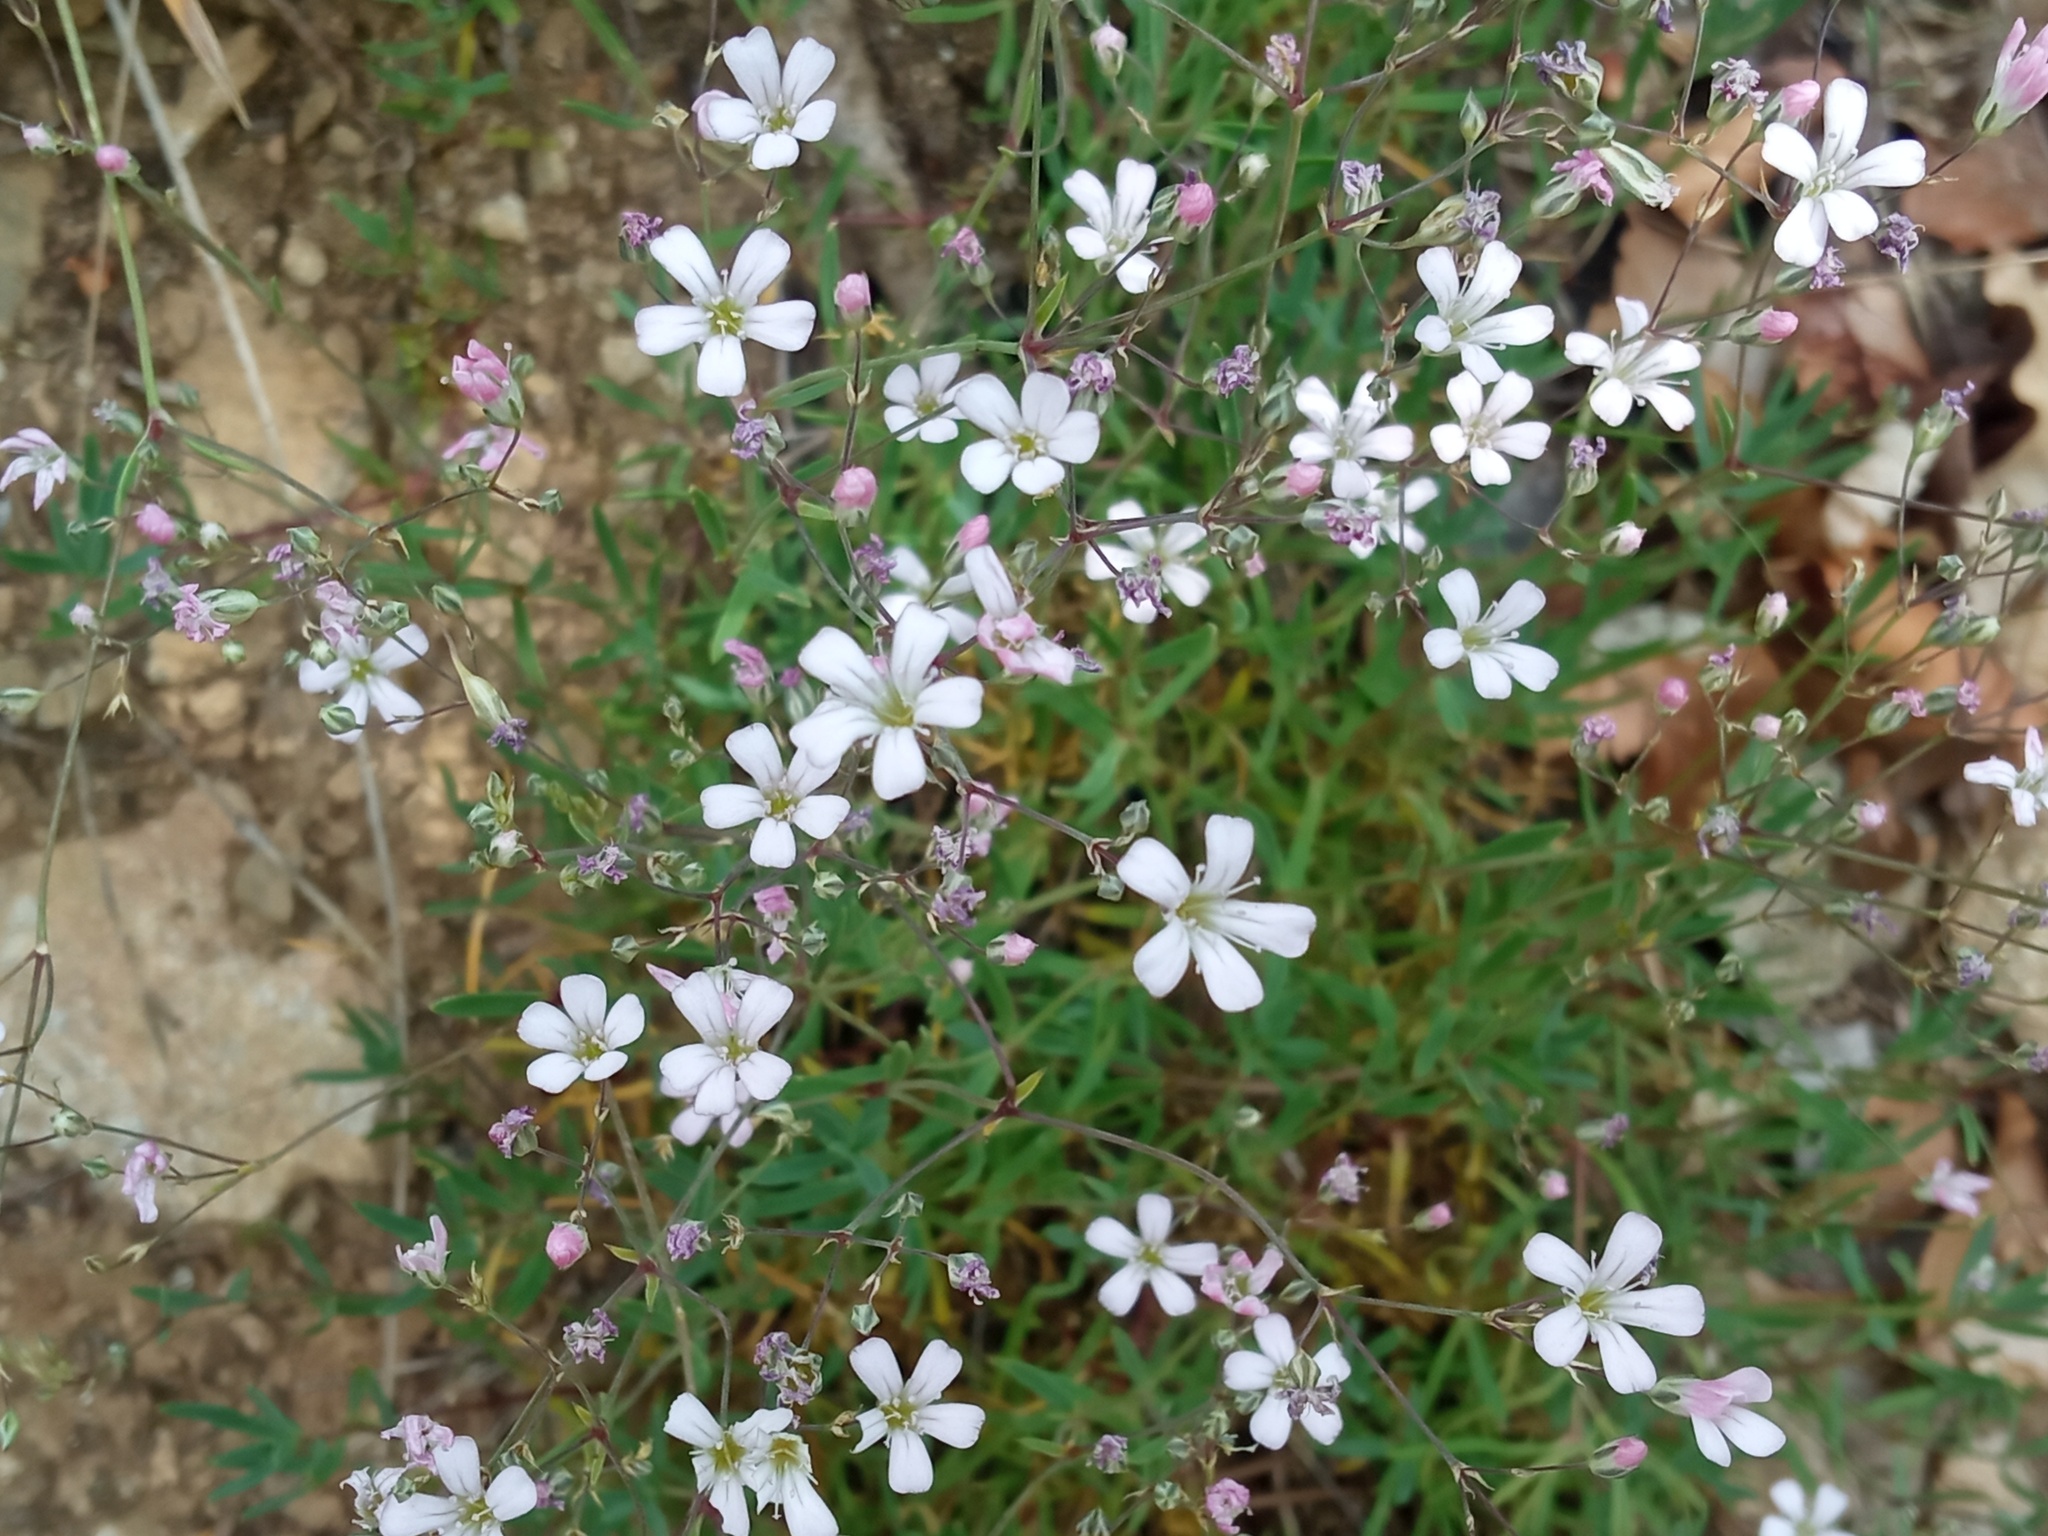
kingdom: Plantae
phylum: Tracheophyta
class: Magnoliopsida
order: Caryophyllales
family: Caryophyllaceae
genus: Gypsophila
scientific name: Gypsophila repens
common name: Creeping baby's-breath
